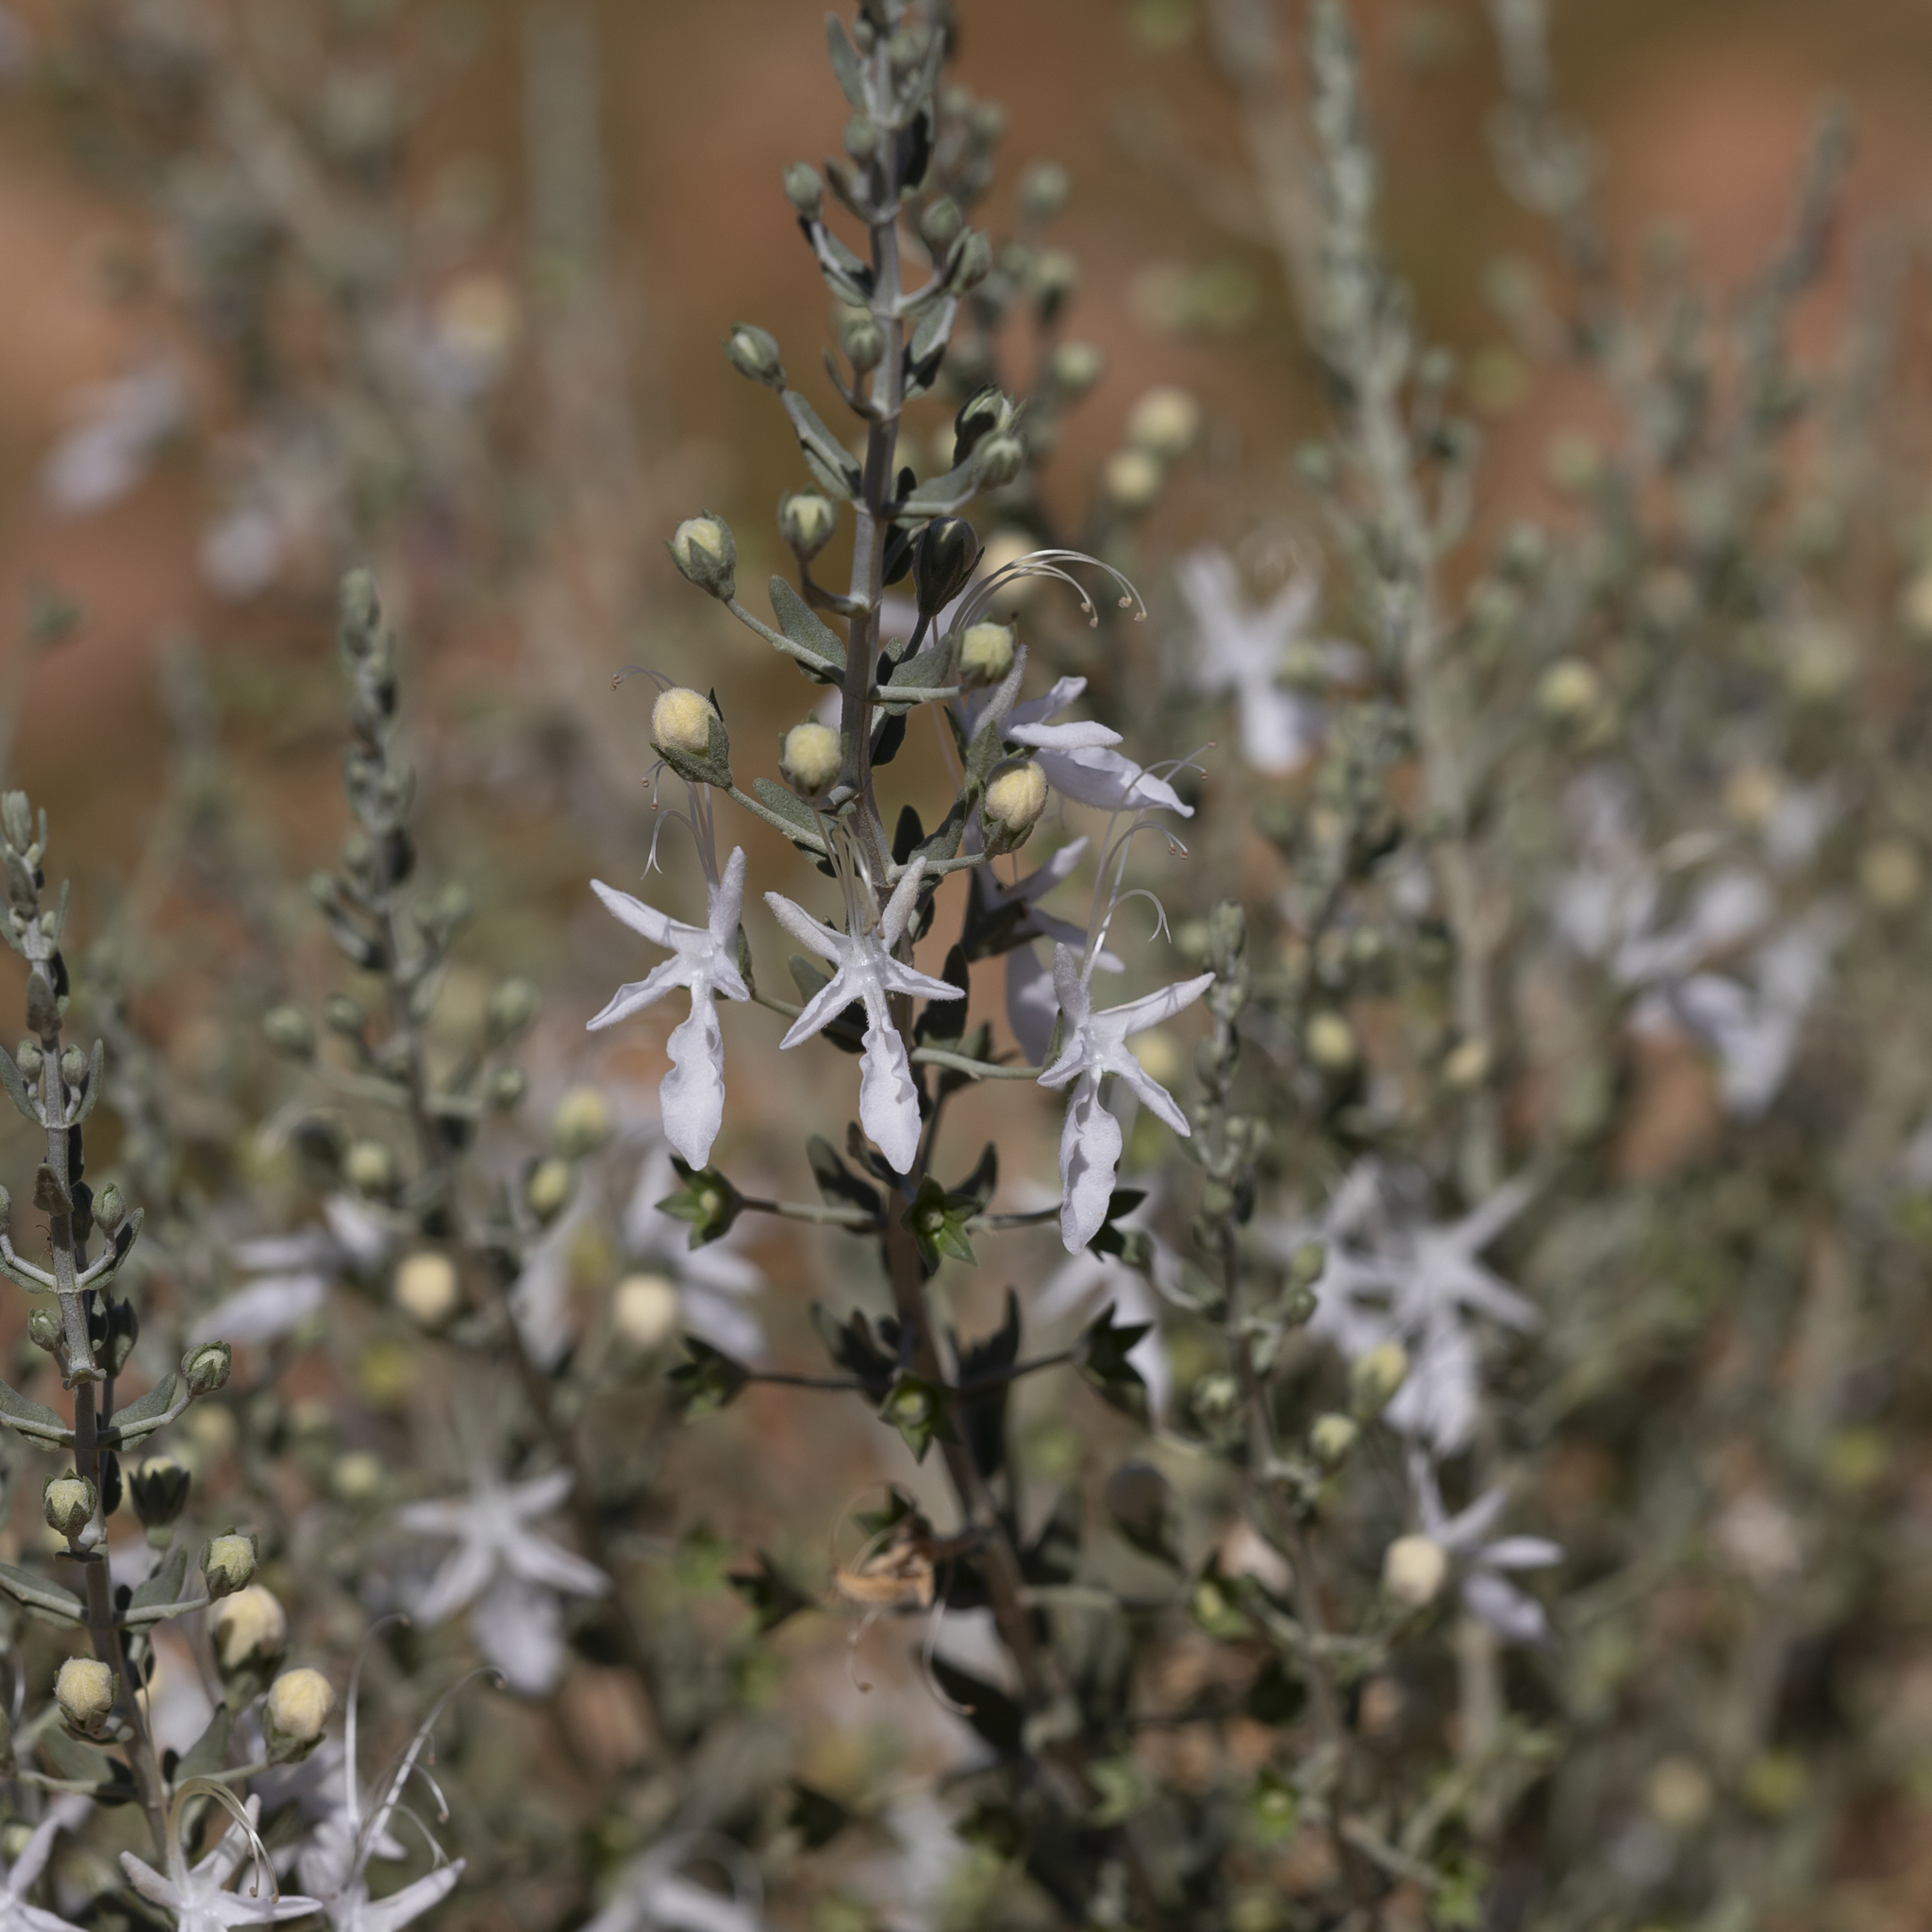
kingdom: Plantae
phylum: Tracheophyta
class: Magnoliopsida
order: Lamiales
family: Lamiaceae
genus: Teucrium
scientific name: Teucrium racemosum
